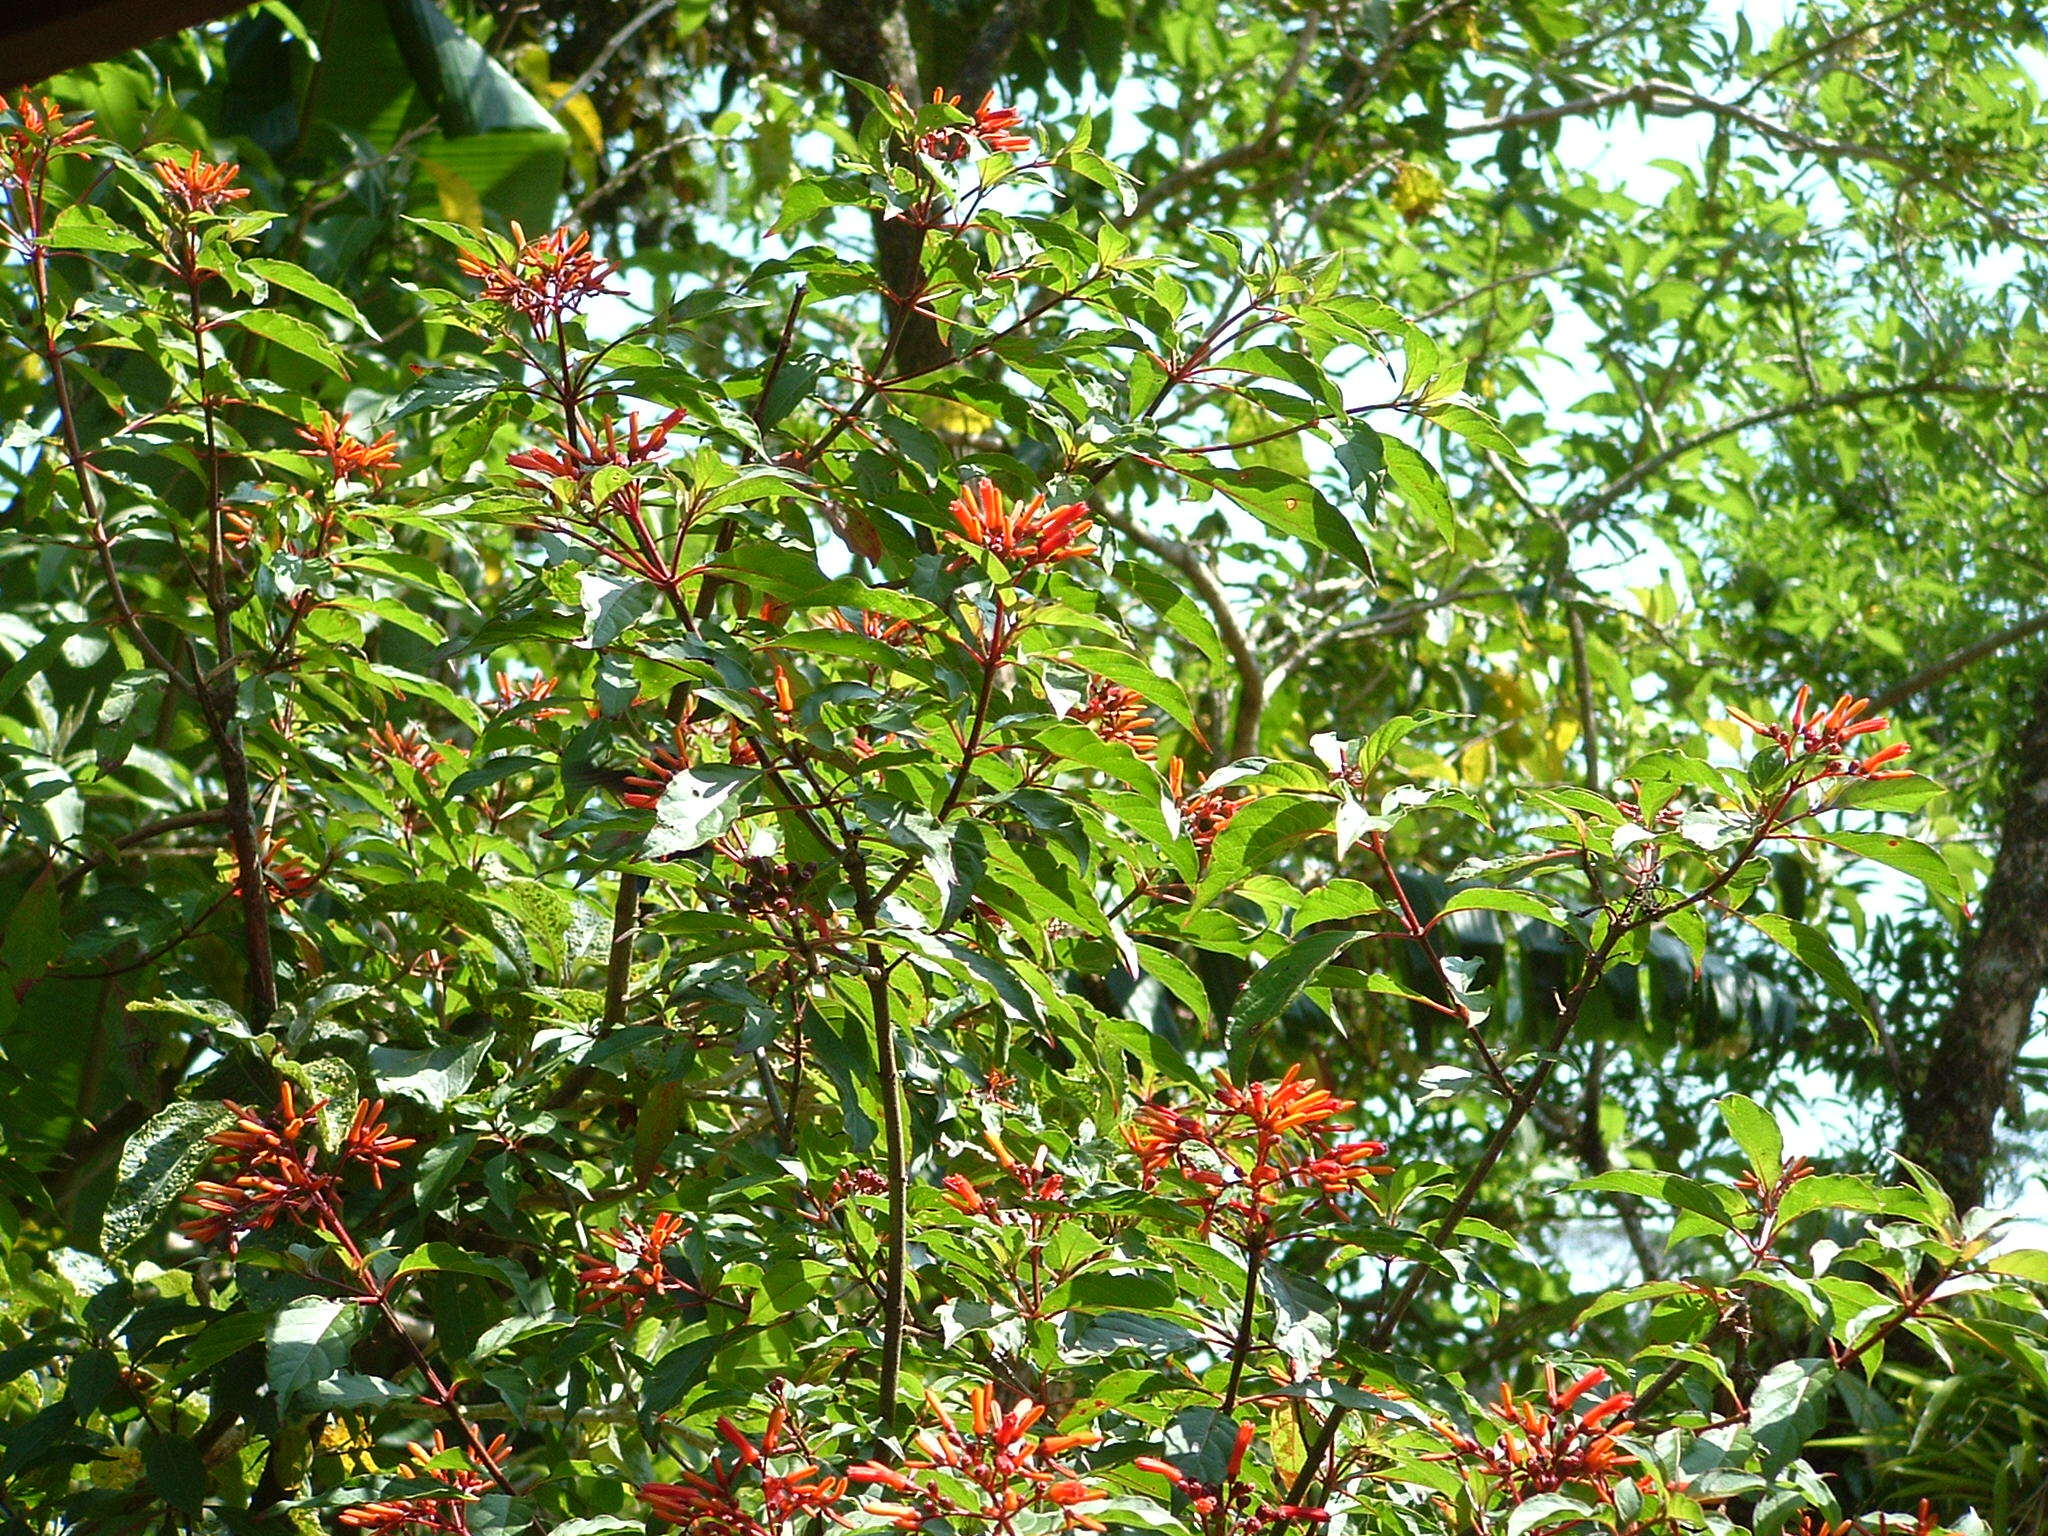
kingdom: Plantae
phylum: Tracheophyta
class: Magnoliopsida
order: Gentianales
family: Rubiaceae
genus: Hamelia
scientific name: Hamelia patens
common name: Redhead
